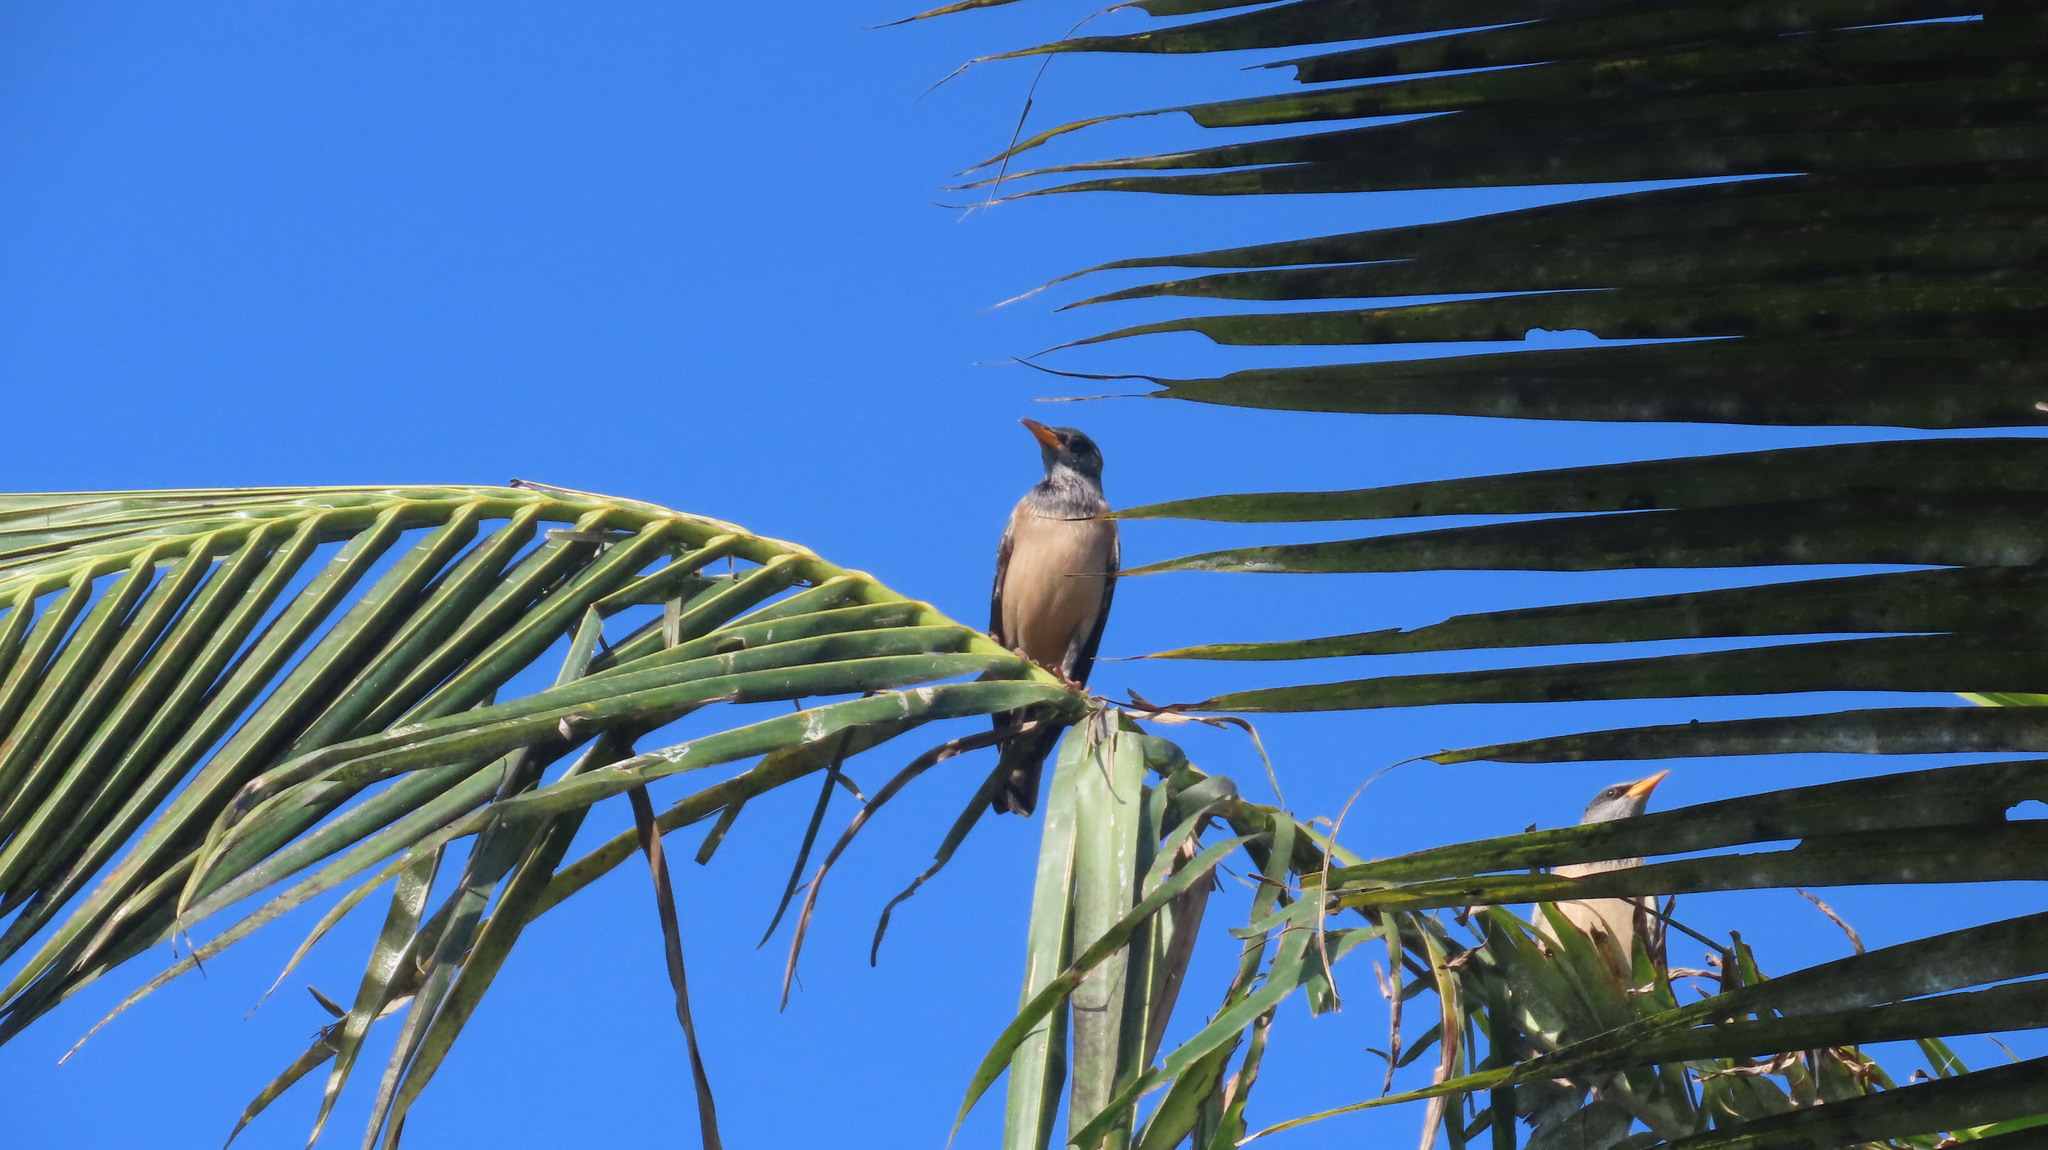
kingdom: Animalia
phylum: Chordata
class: Aves
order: Passeriformes
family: Sturnidae
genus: Pastor
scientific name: Pastor roseus
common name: Rosy starling
